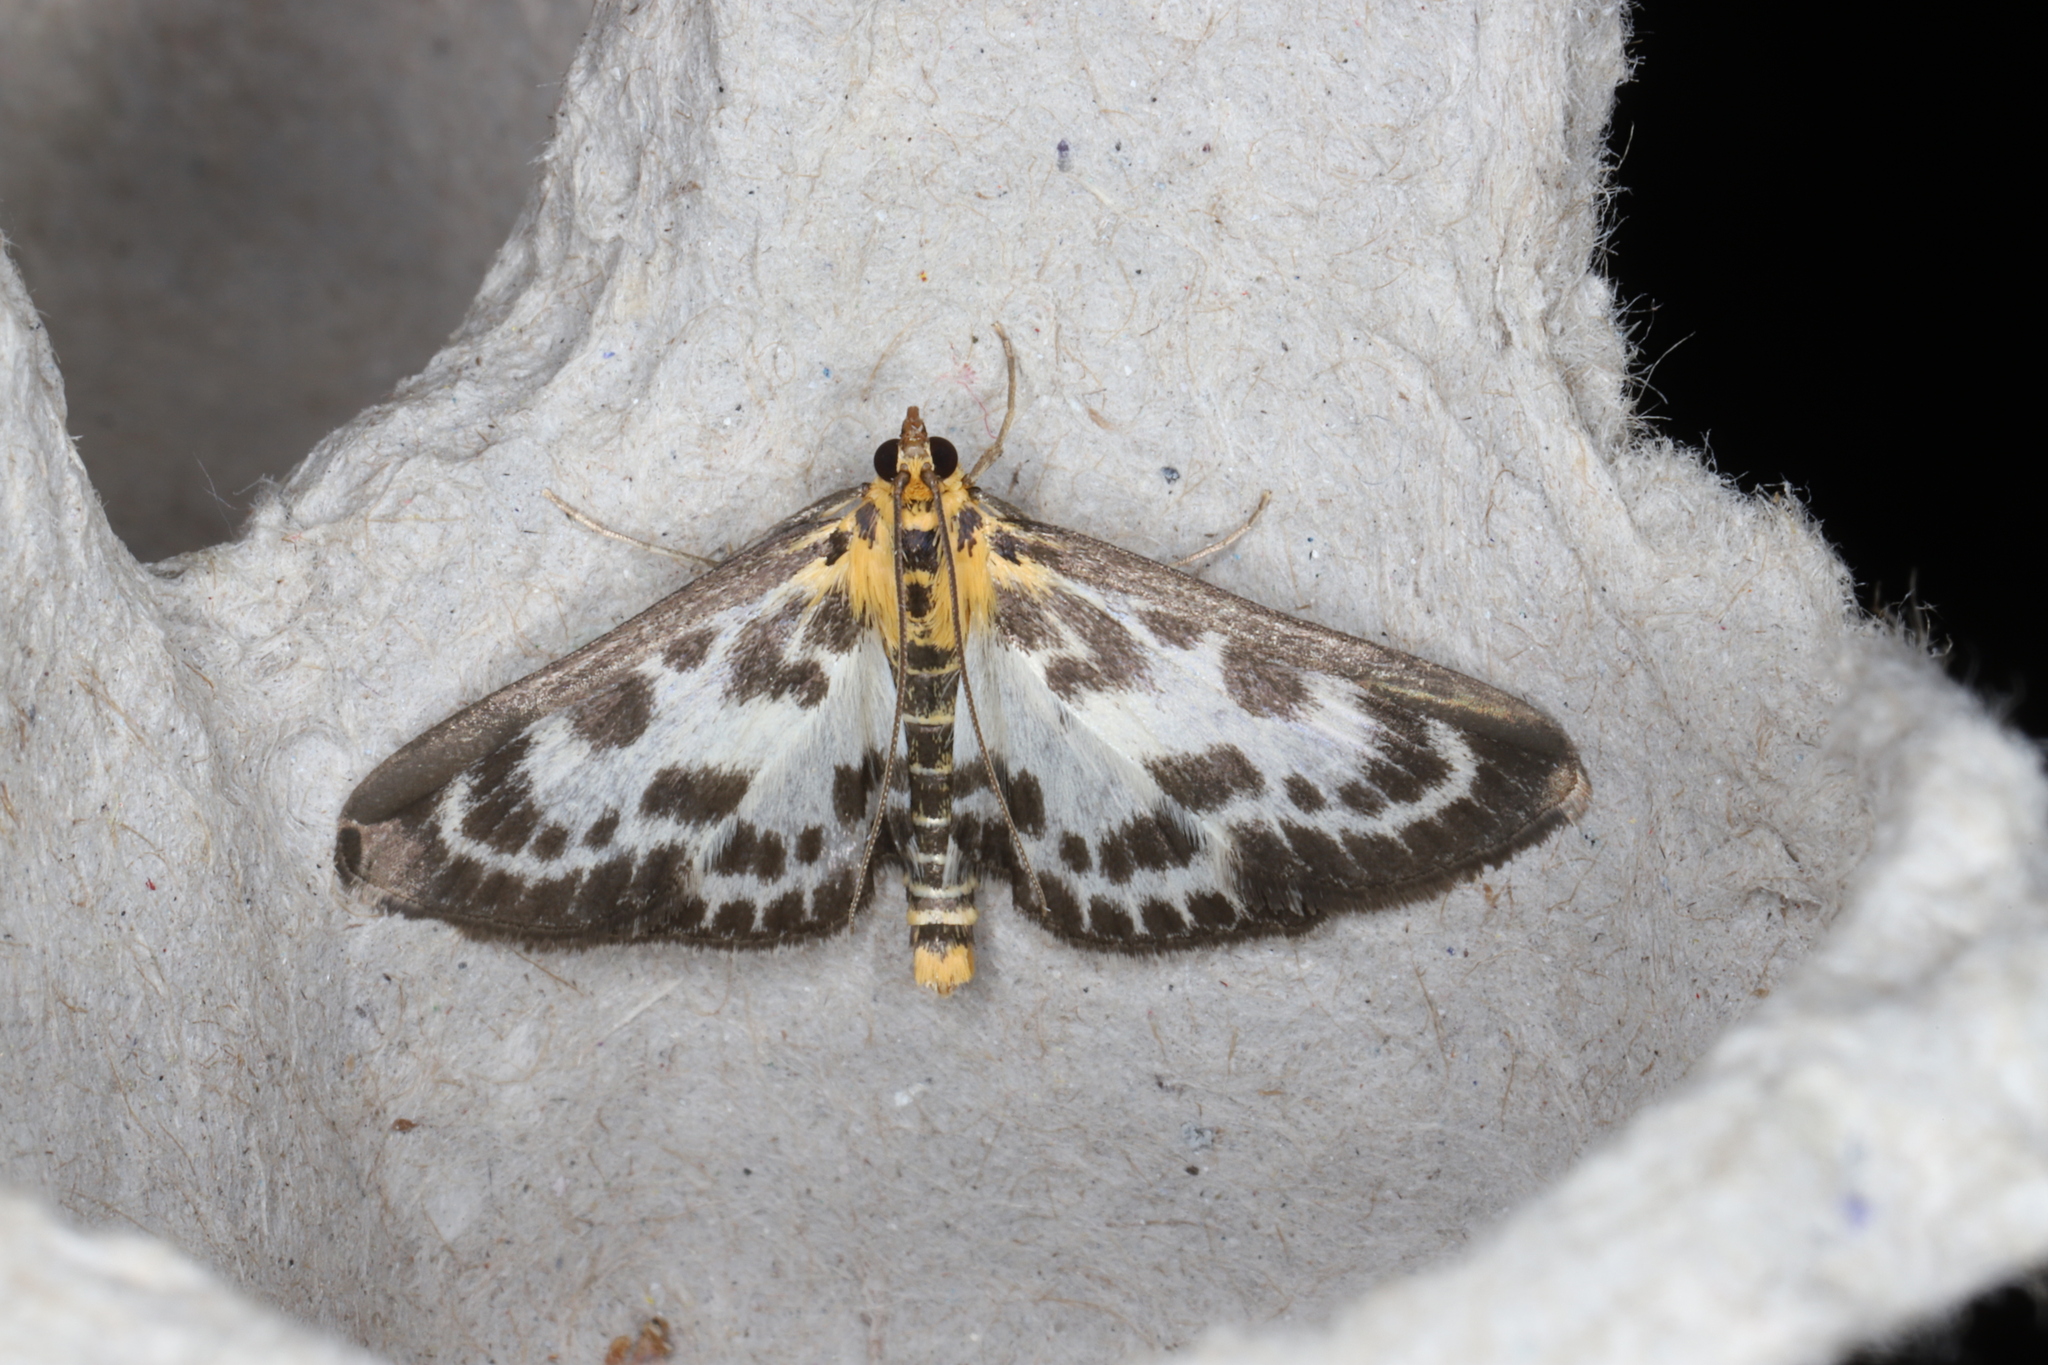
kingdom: Animalia
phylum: Arthropoda
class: Insecta
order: Lepidoptera
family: Crambidae
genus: Anania
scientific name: Anania hortulata
